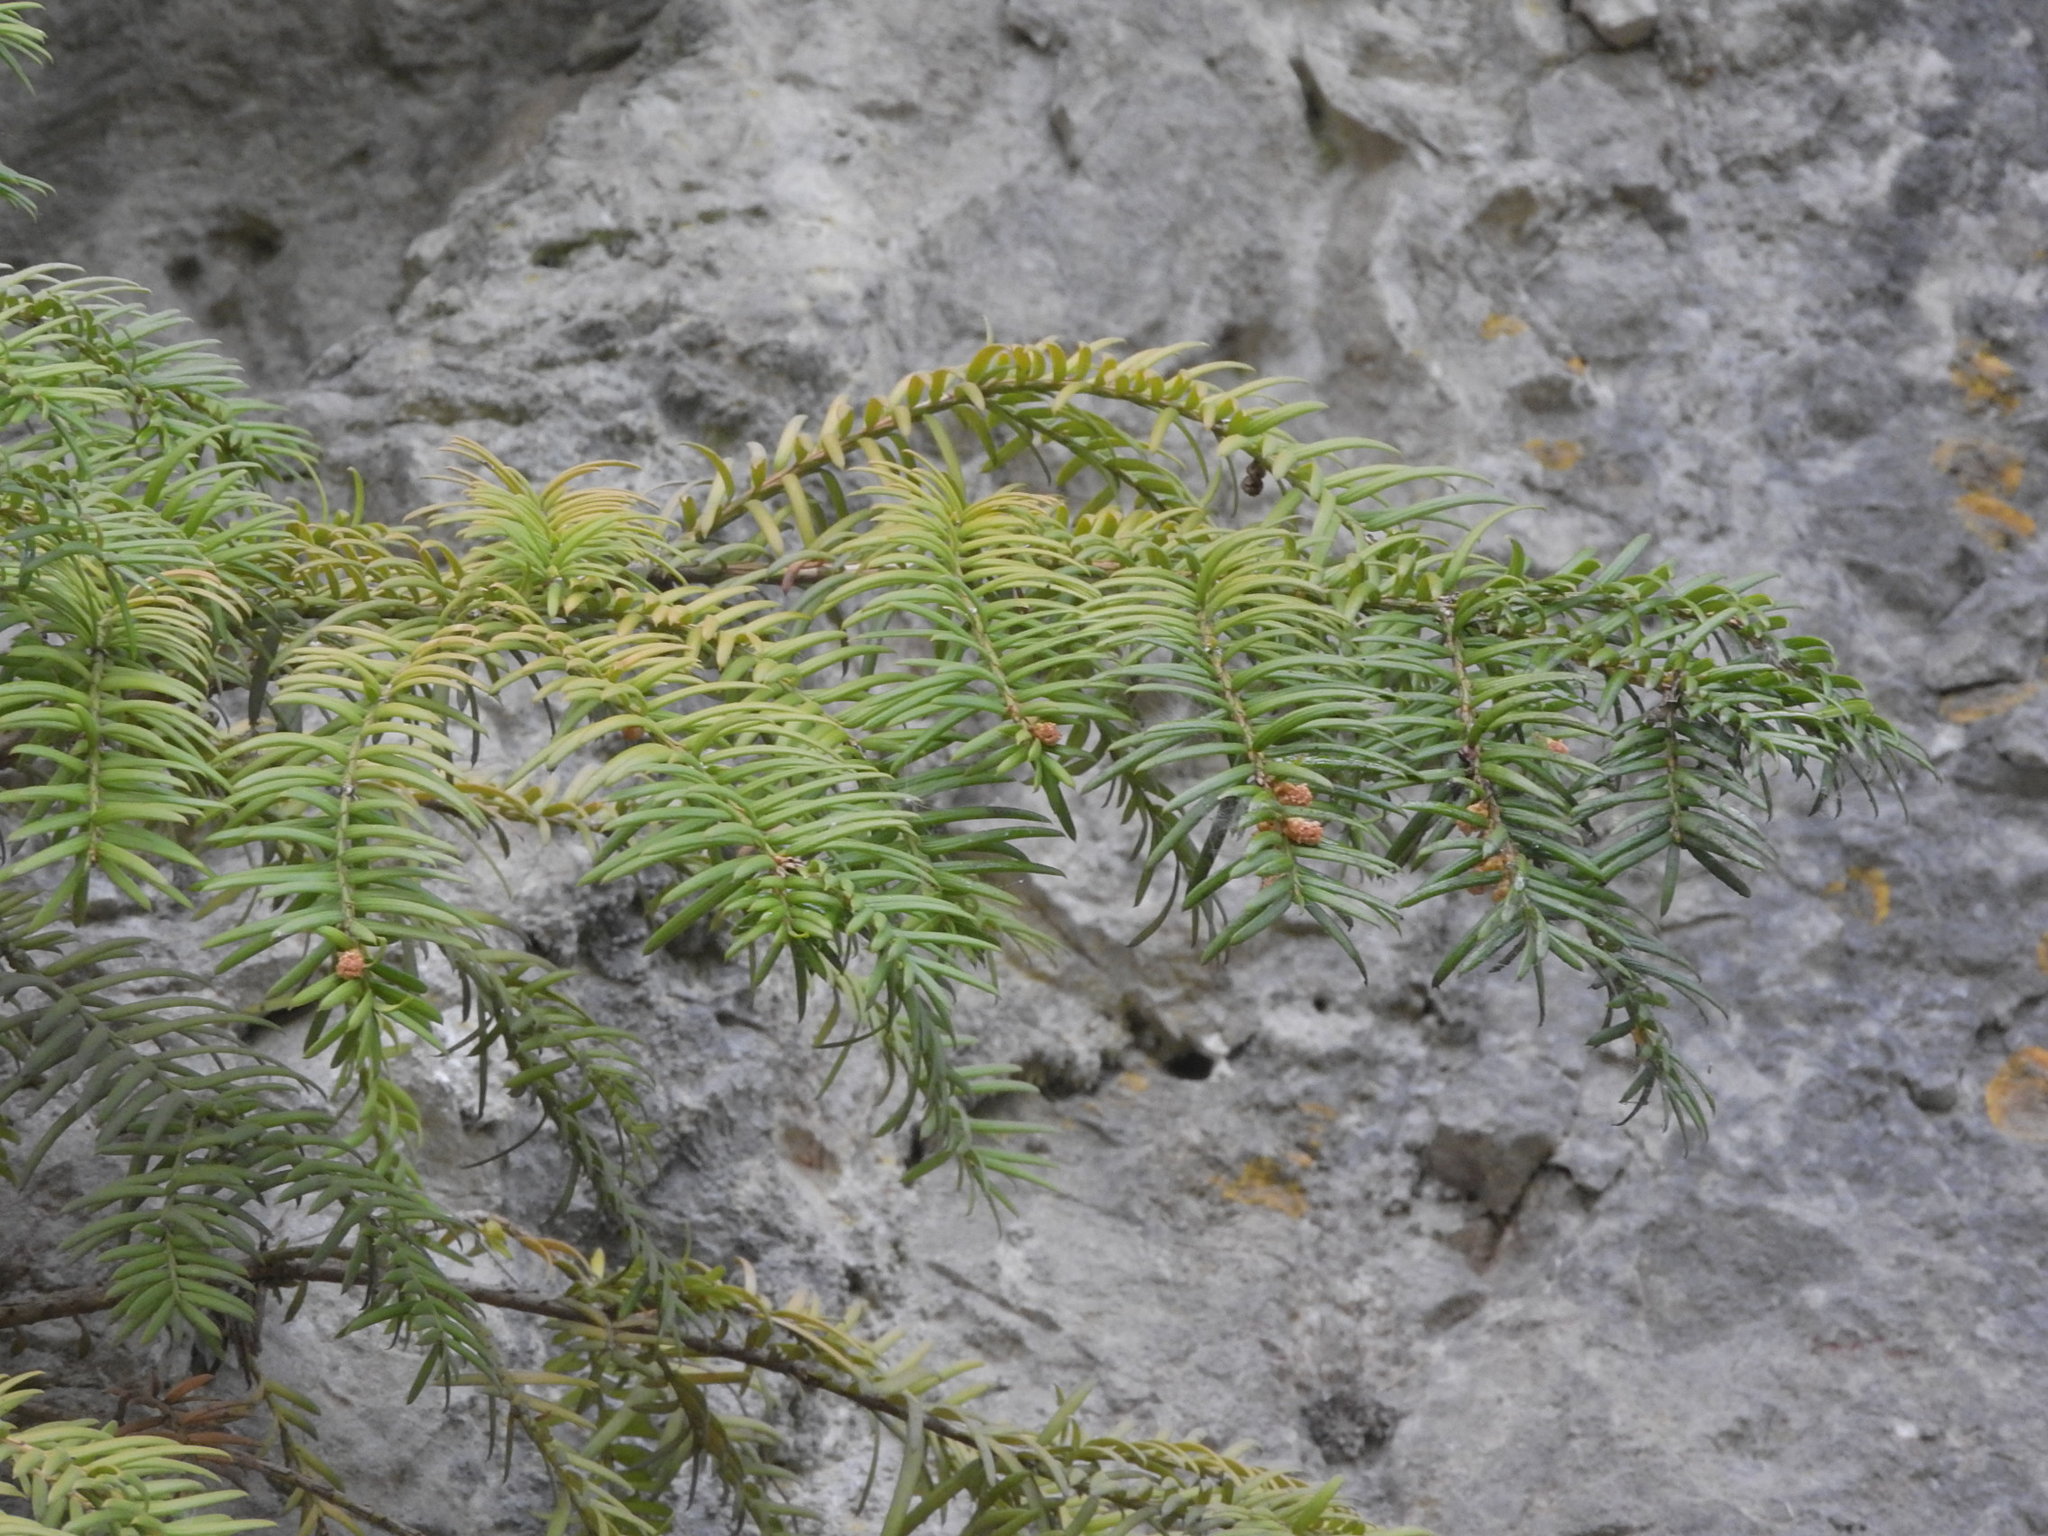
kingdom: Plantae
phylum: Tracheophyta
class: Pinopsida
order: Pinales
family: Taxaceae
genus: Taxus
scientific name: Taxus baccata
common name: Yew
